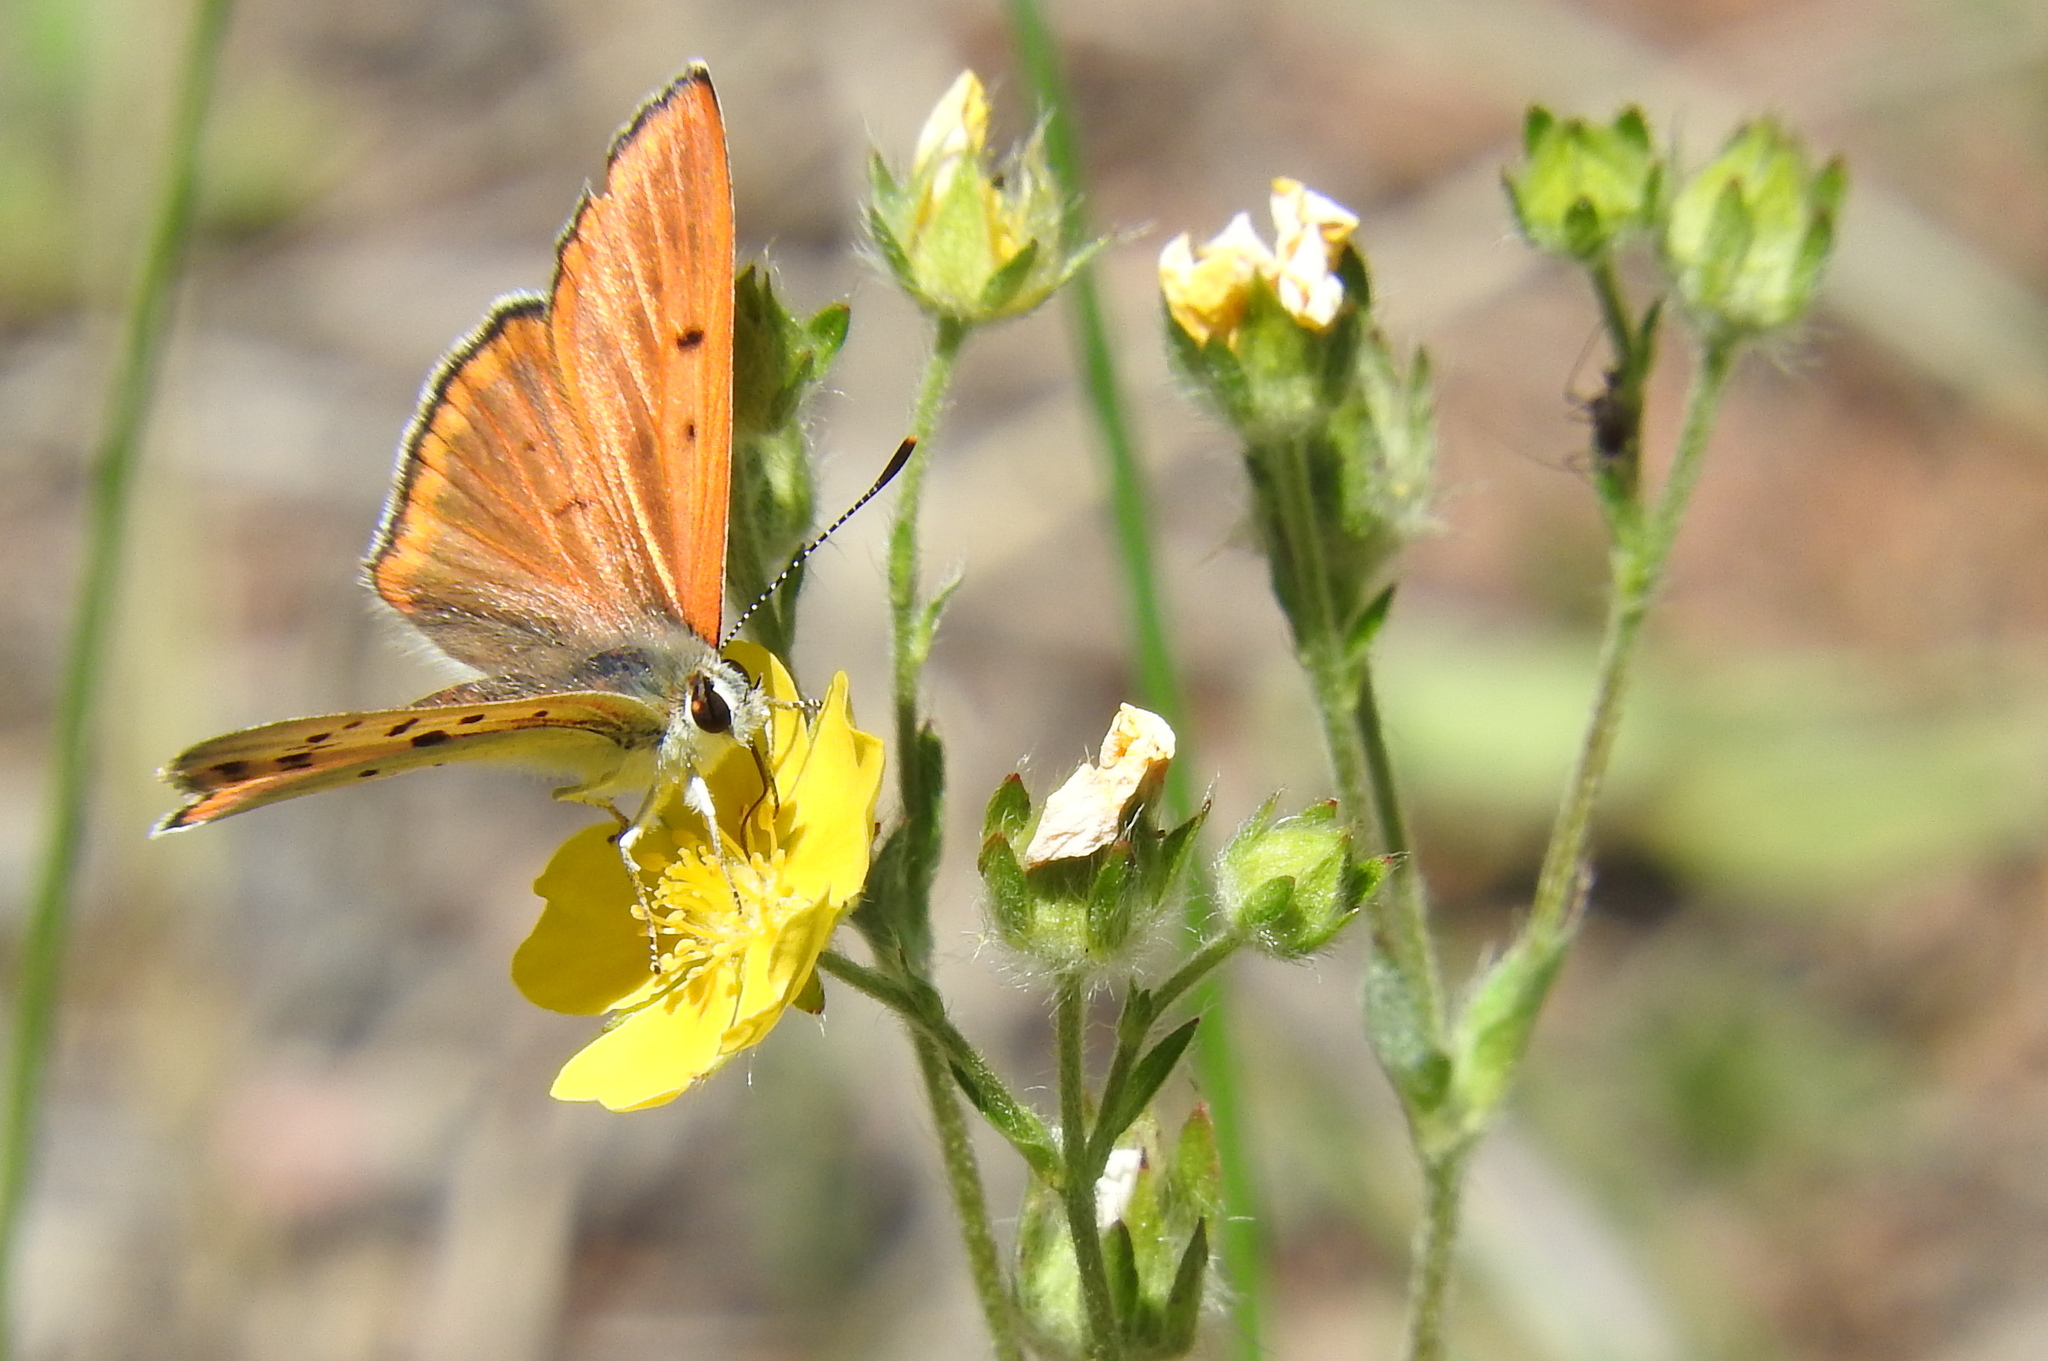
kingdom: Animalia
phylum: Arthropoda
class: Insecta
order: Lepidoptera
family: Lycaenidae
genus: Tharsalea
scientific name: Tharsalea rubidus
